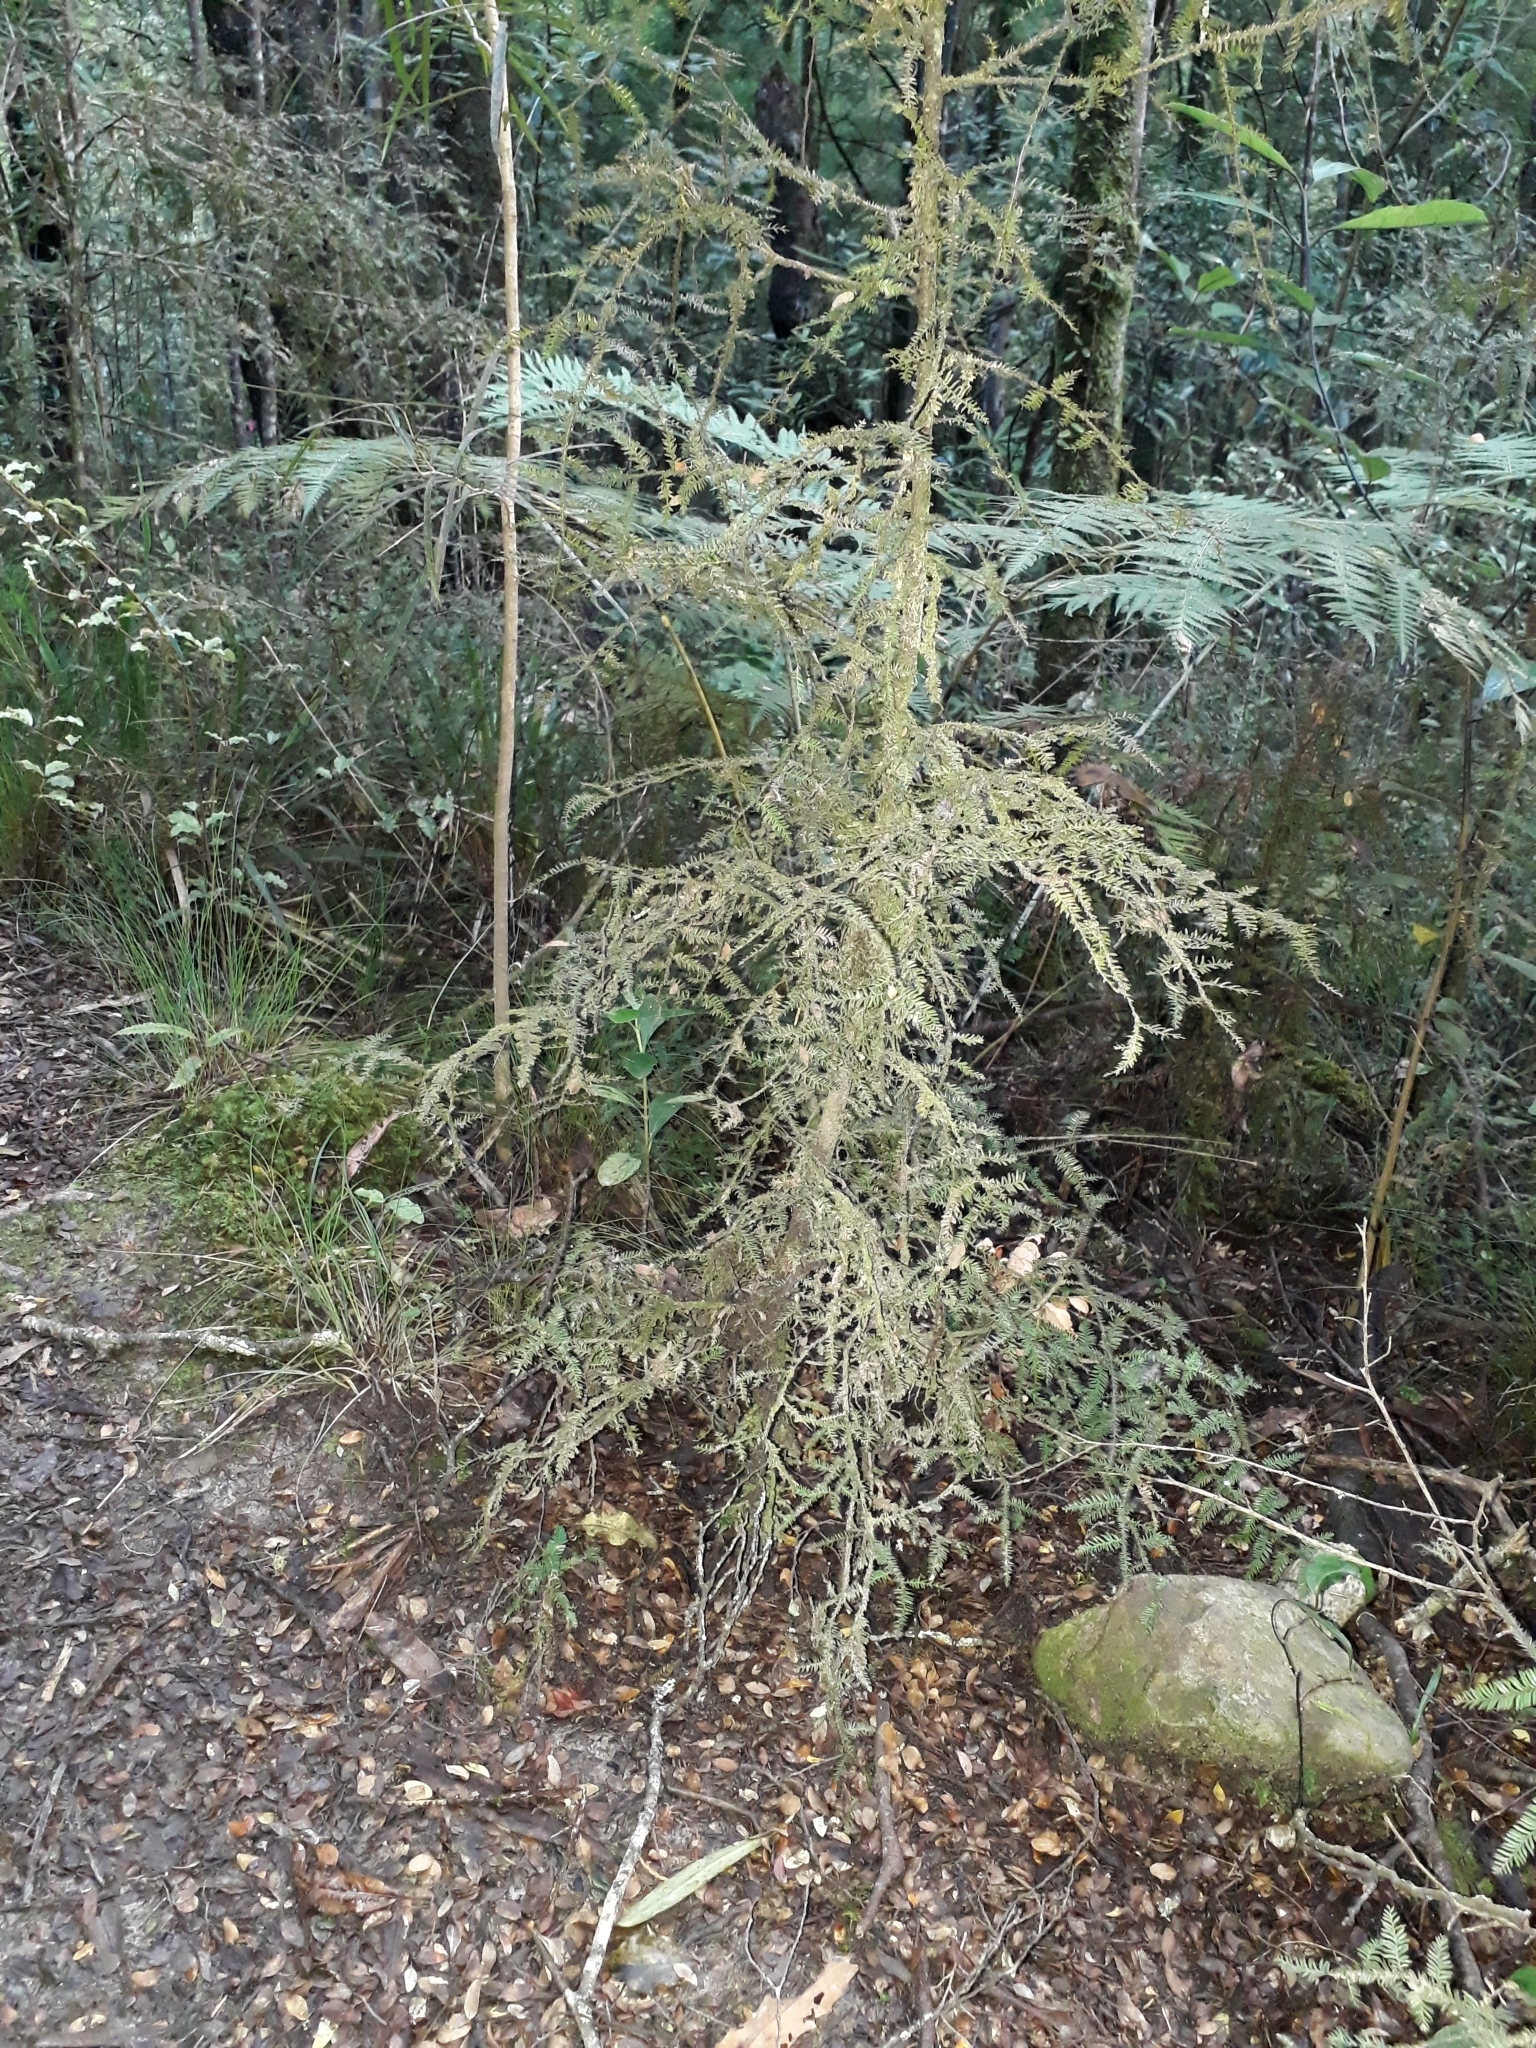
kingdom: Plantae
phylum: Tracheophyta
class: Pinopsida
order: Pinales
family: Podocarpaceae
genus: Dacrycarpus
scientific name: Dacrycarpus dacrydioides
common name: White pine
